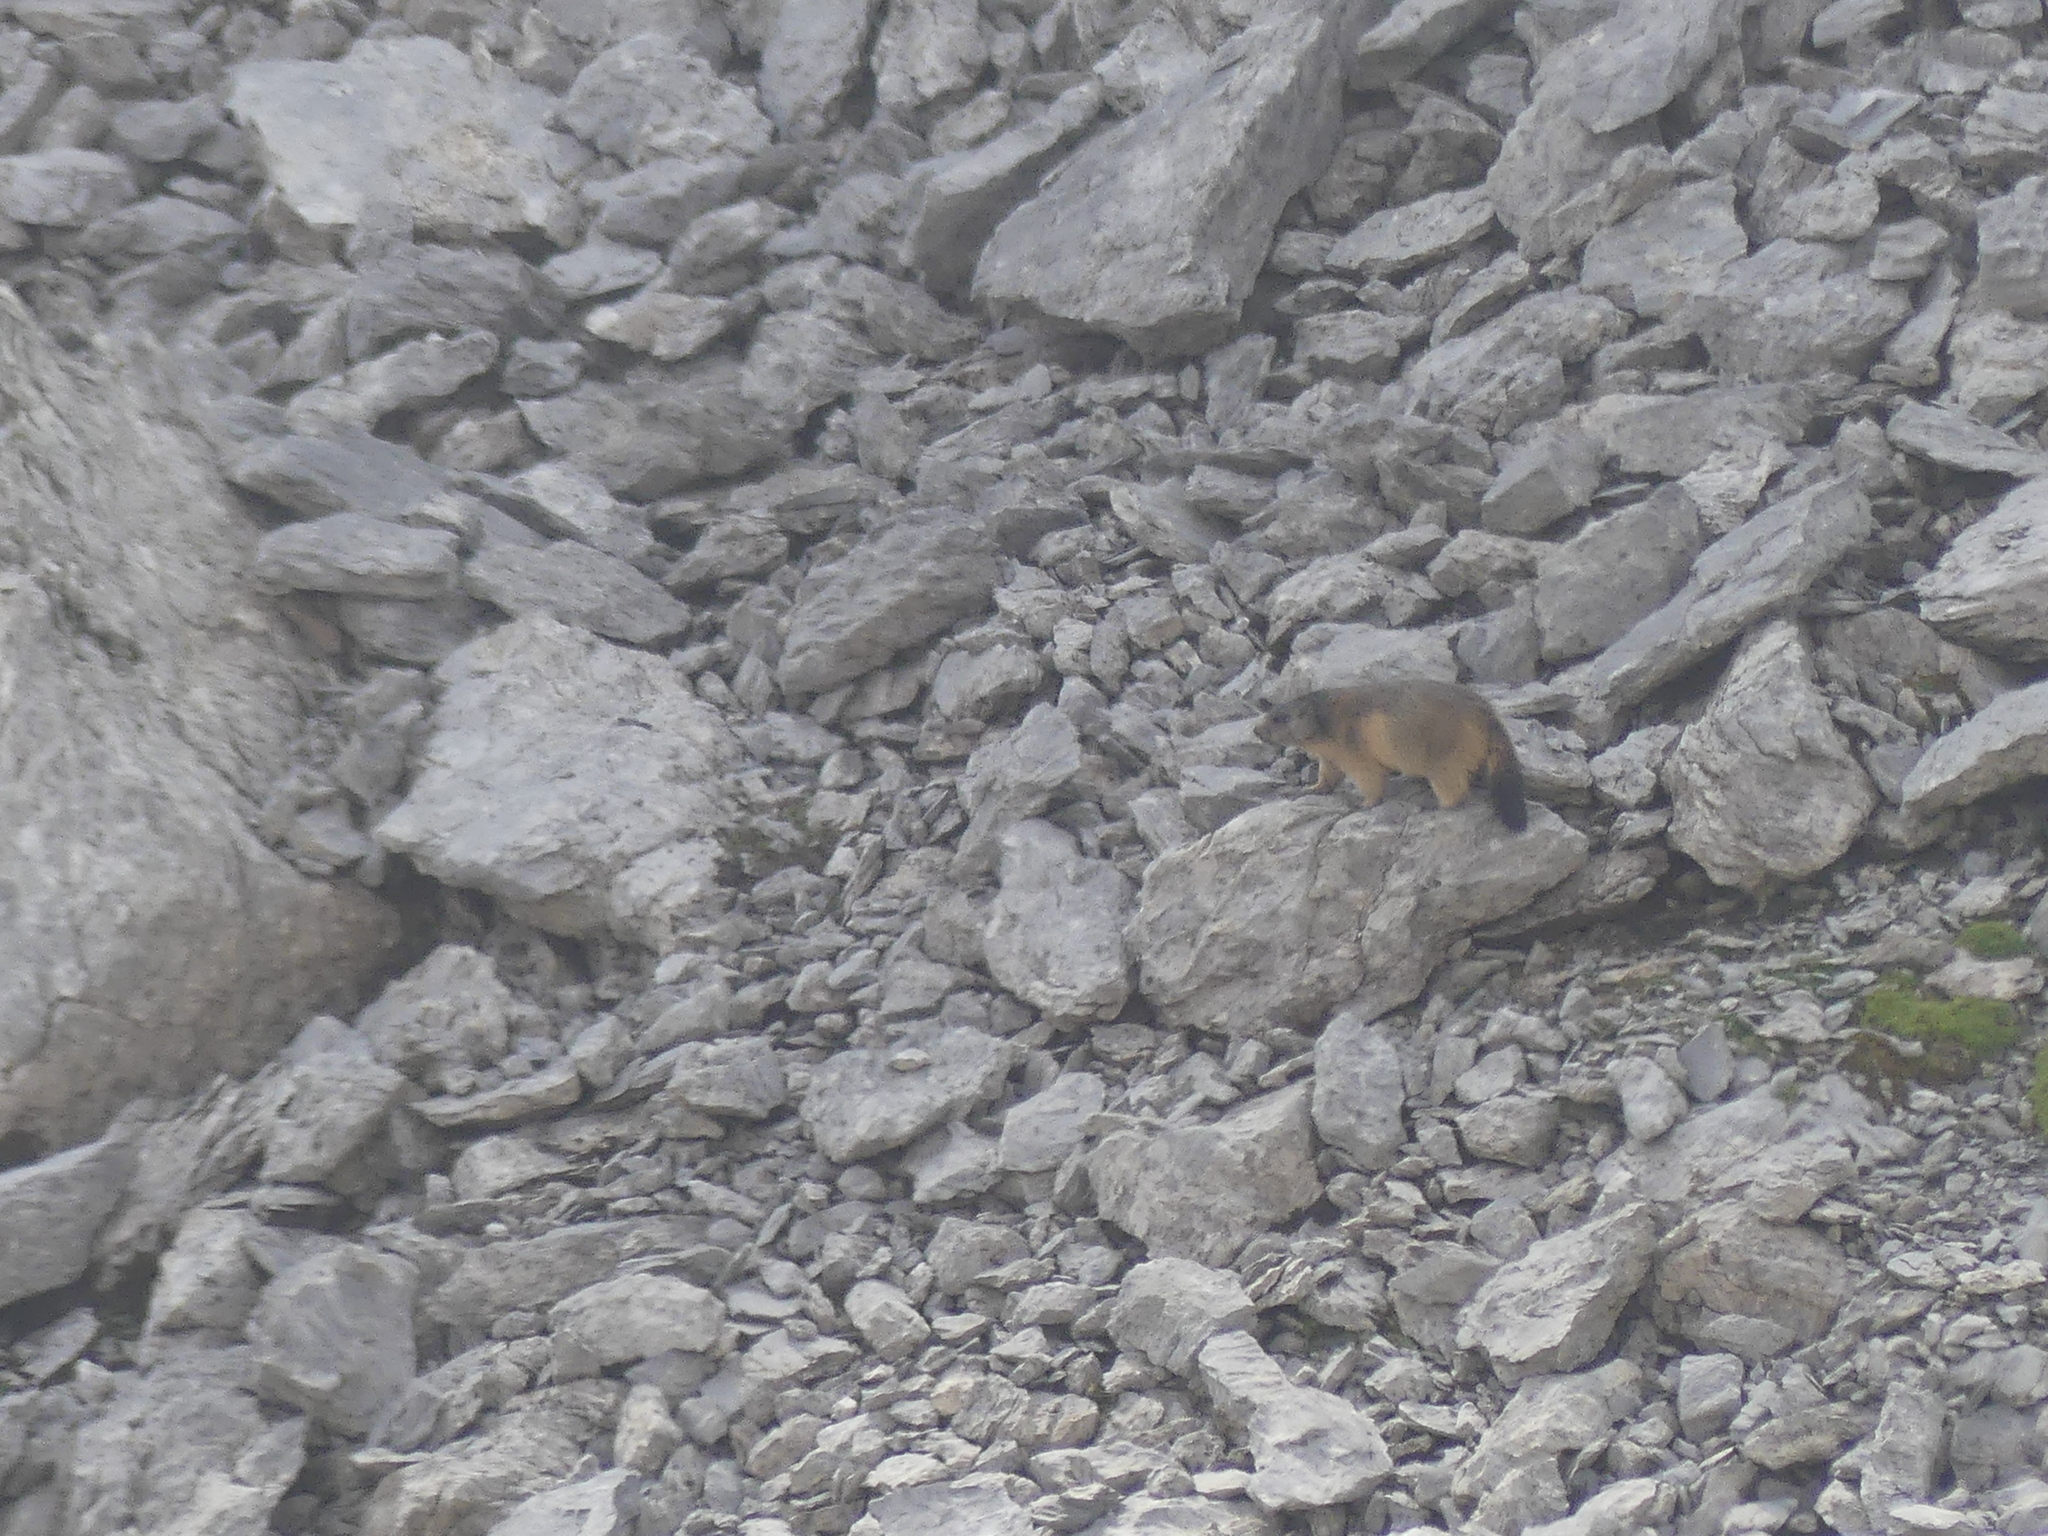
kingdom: Animalia
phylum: Chordata
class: Mammalia
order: Rodentia
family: Sciuridae
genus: Marmota
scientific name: Marmota marmota
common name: Alpine marmot
